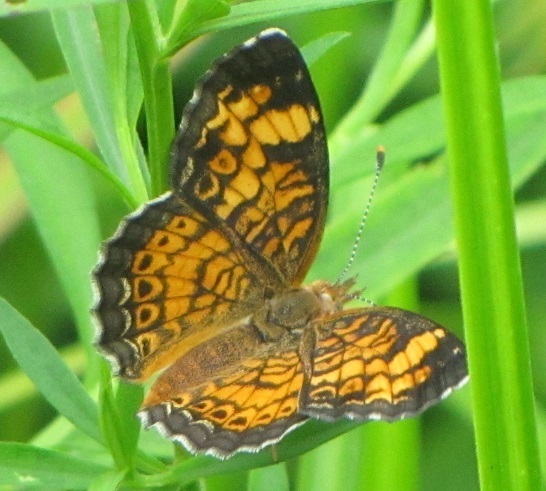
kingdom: Animalia
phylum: Arthropoda
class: Insecta
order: Lepidoptera
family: Nymphalidae
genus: Phyciodes
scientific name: Phyciodes tharos
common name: Pearl crescent
